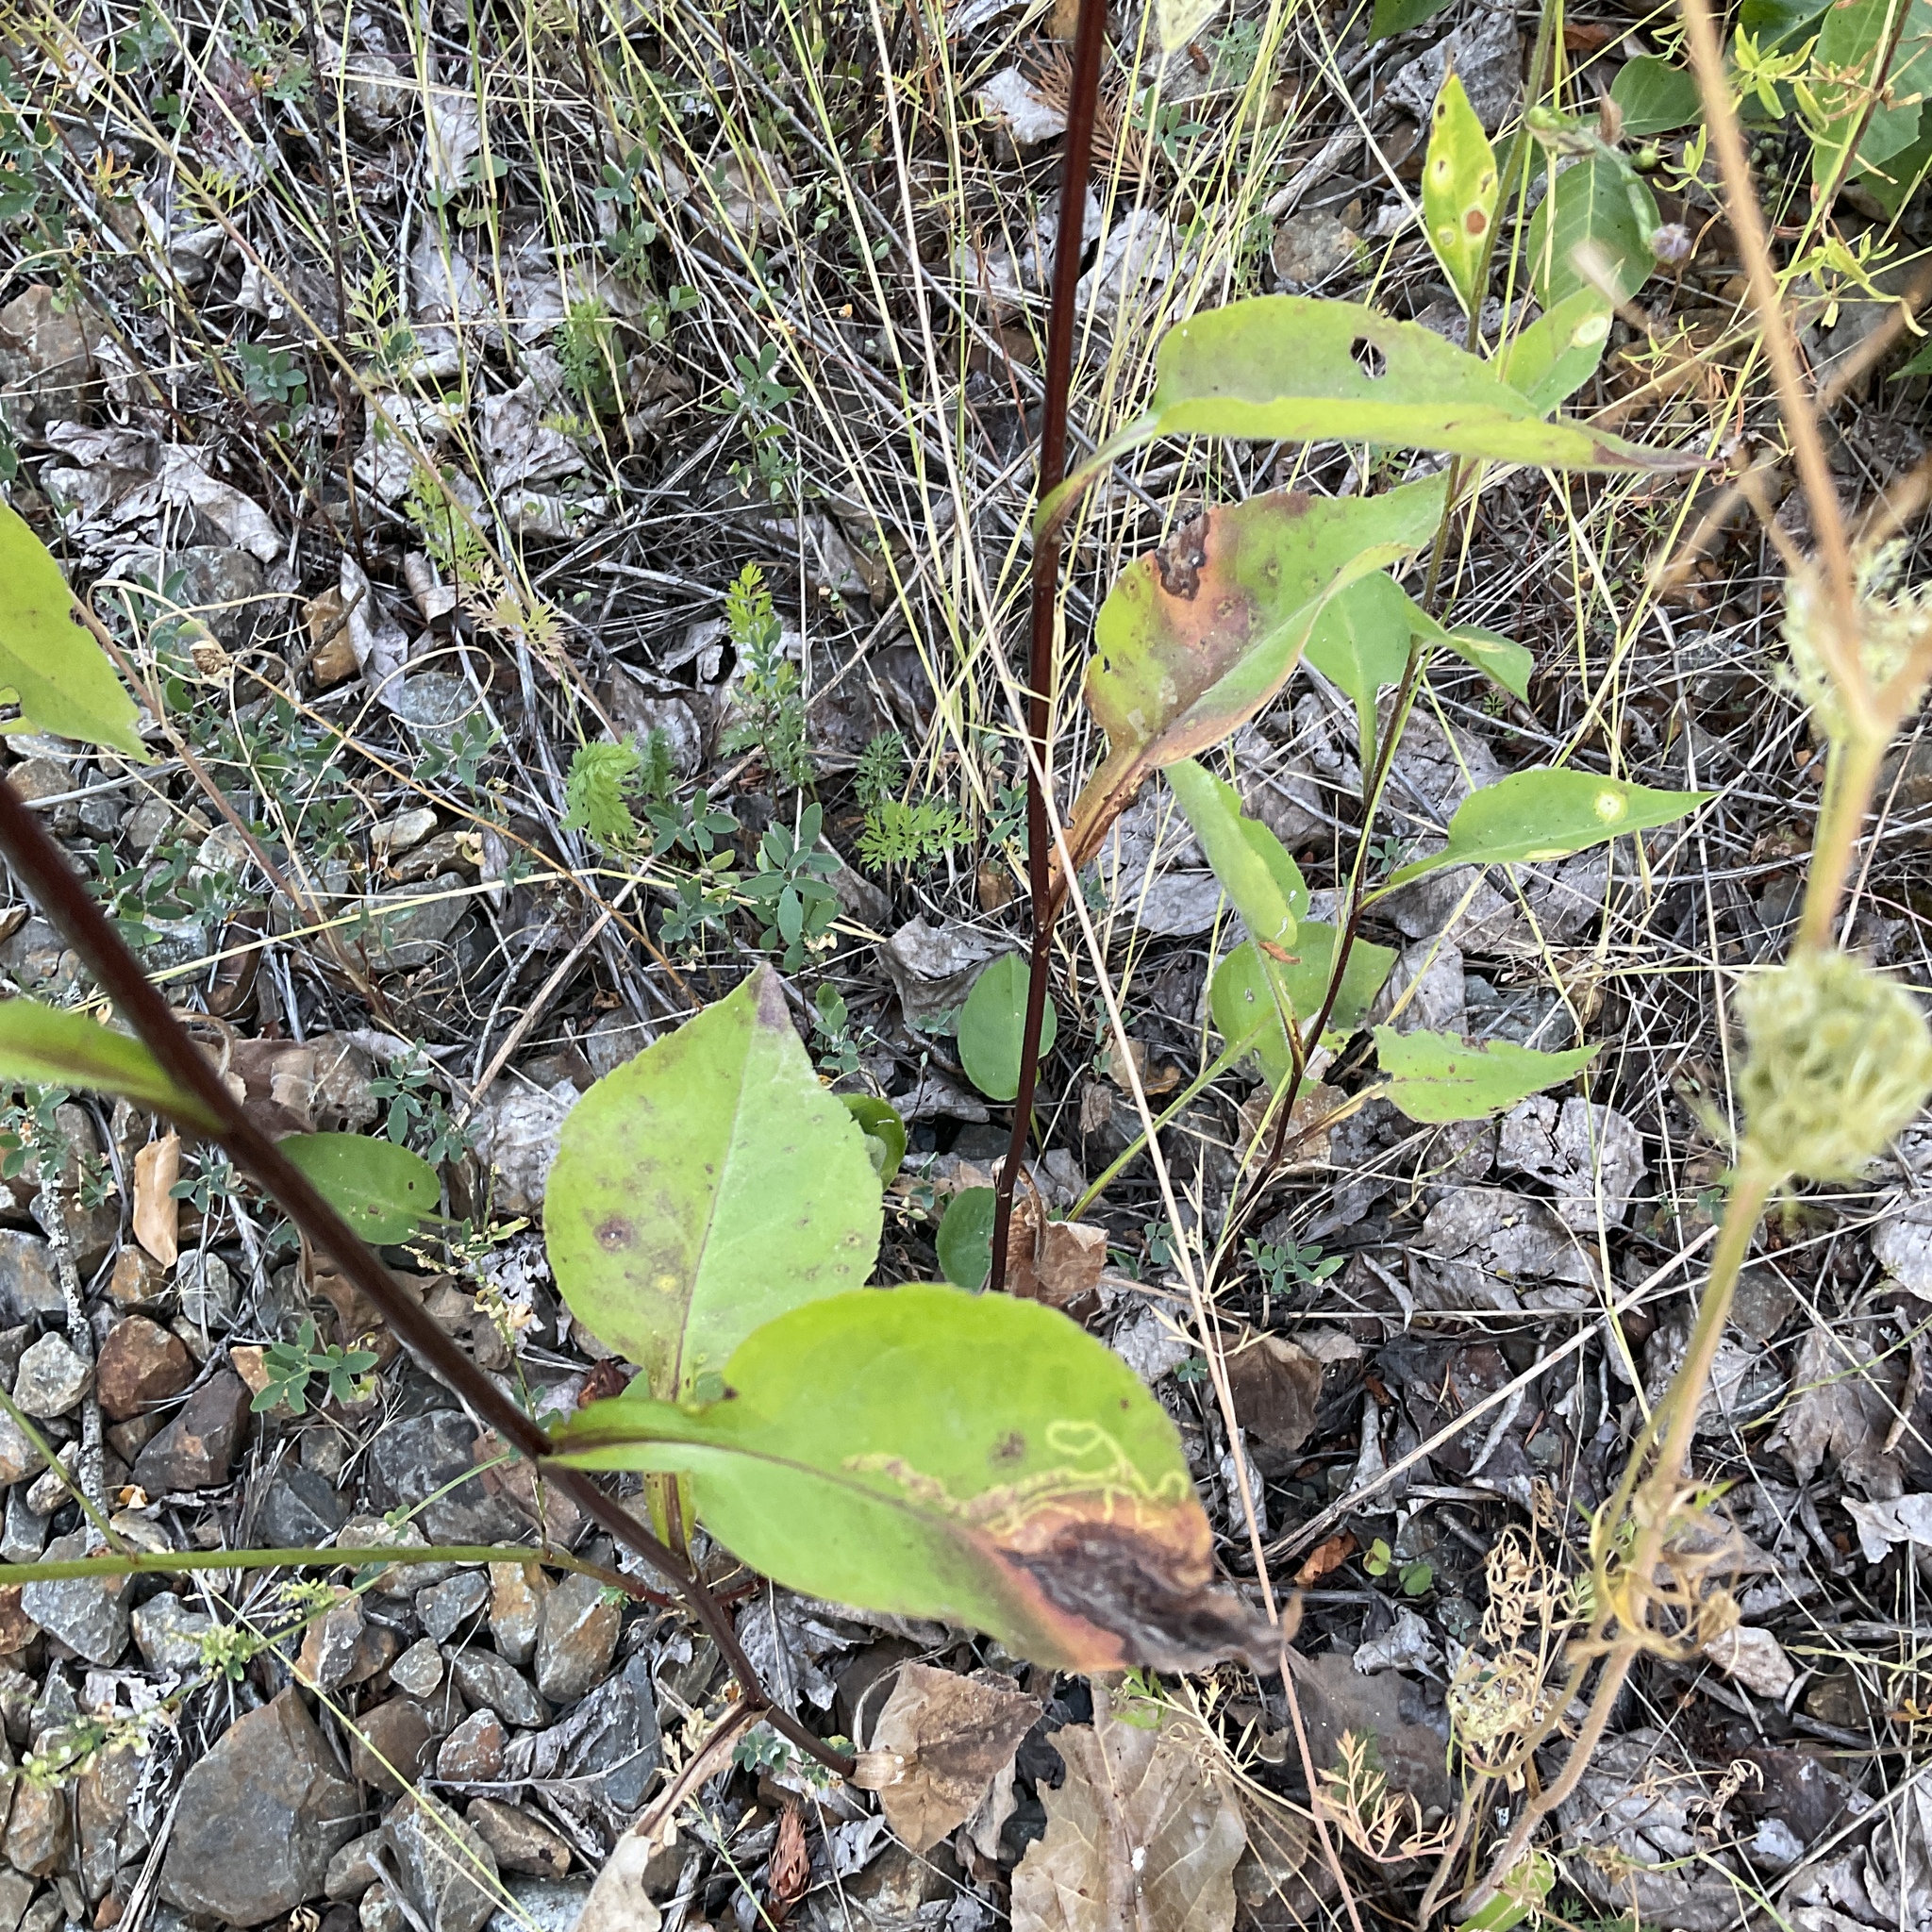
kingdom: Plantae
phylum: Tracheophyta
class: Magnoliopsida
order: Asterales
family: Asteraceae
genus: Symphyotrichum
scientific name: Symphyotrichum ciliolatum
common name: Fringed blue aster
